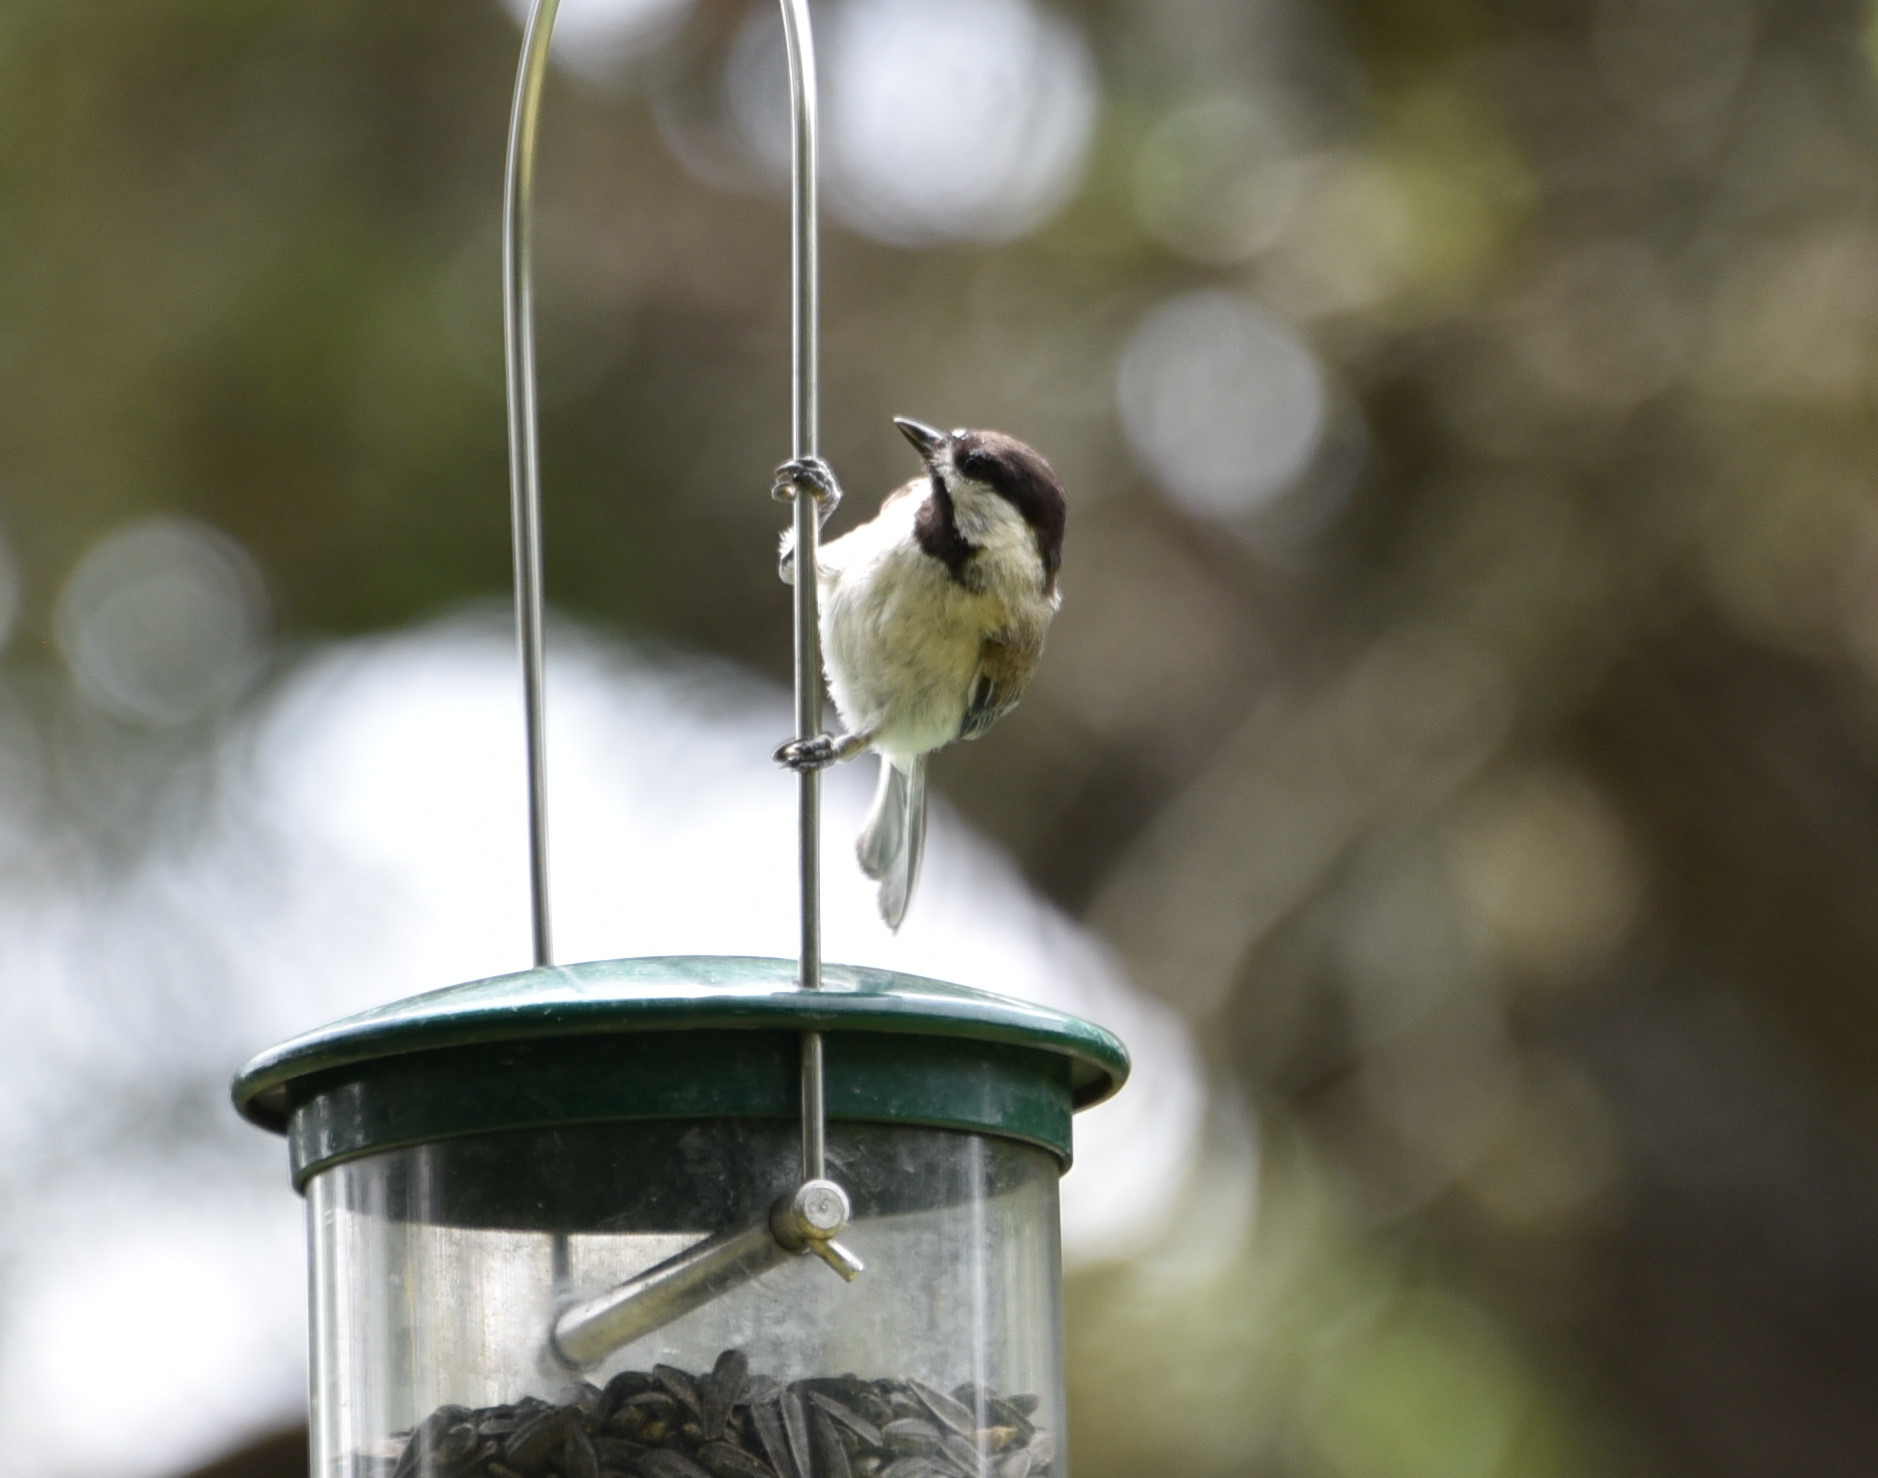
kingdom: Animalia
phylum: Chordata
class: Aves
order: Passeriformes
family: Paridae
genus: Poecile
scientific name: Poecile carolinensis
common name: Carolina chickadee
